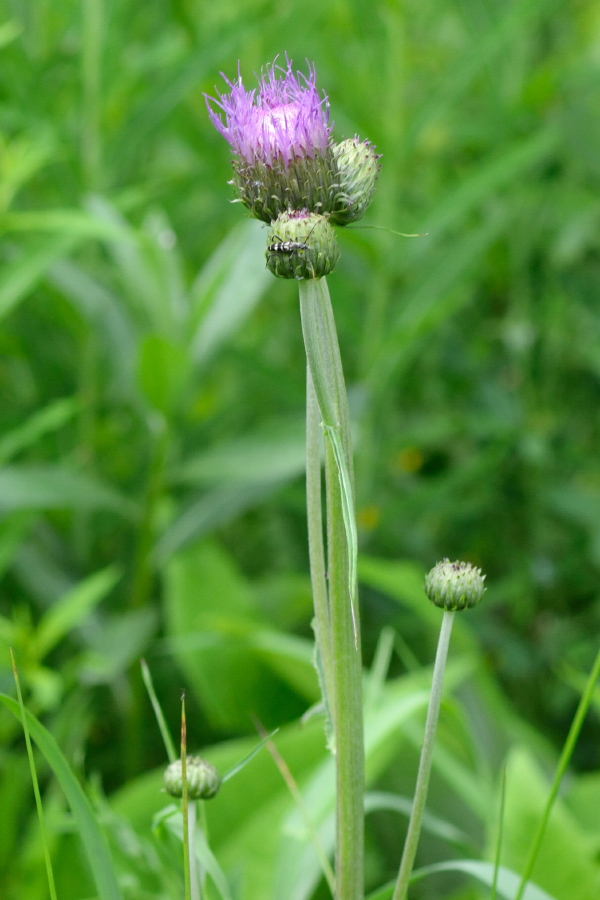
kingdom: Plantae
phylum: Tracheophyta
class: Magnoliopsida
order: Asterales
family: Asteraceae
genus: Cirsium
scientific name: Cirsium heterophyllum
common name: Melancholy thistle
